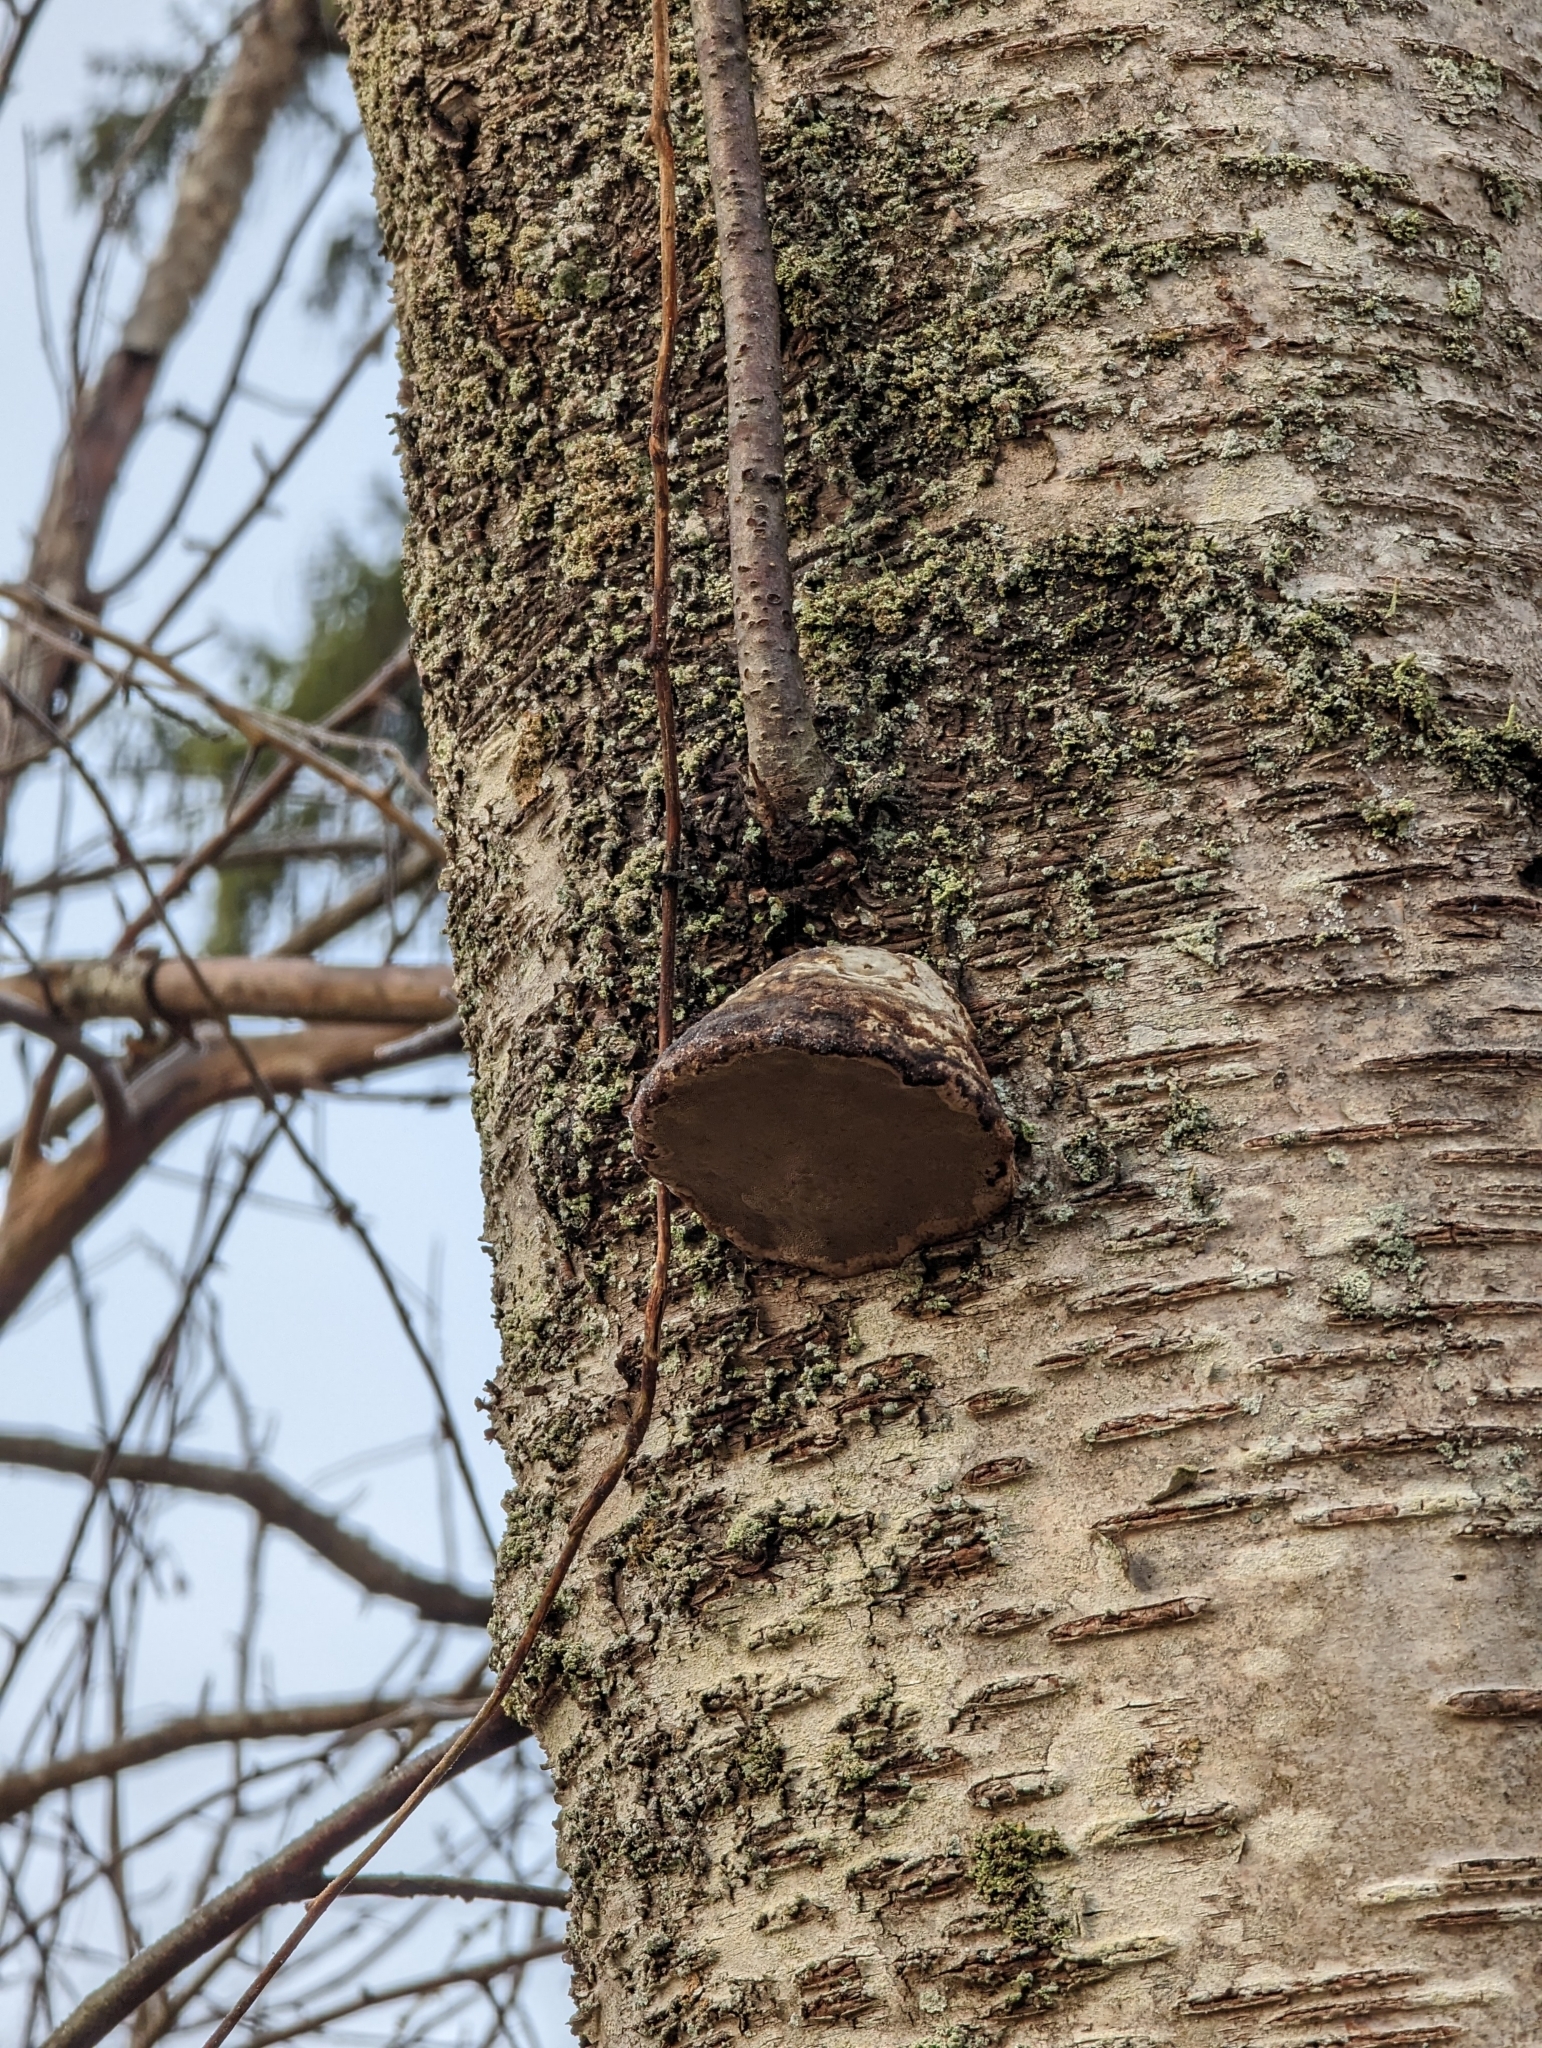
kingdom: Fungi
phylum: Basidiomycota
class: Agaricomycetes
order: Polyporales
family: Polyporaceae
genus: Fomes
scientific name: Fomes fomentarius
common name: Hoof fungus
